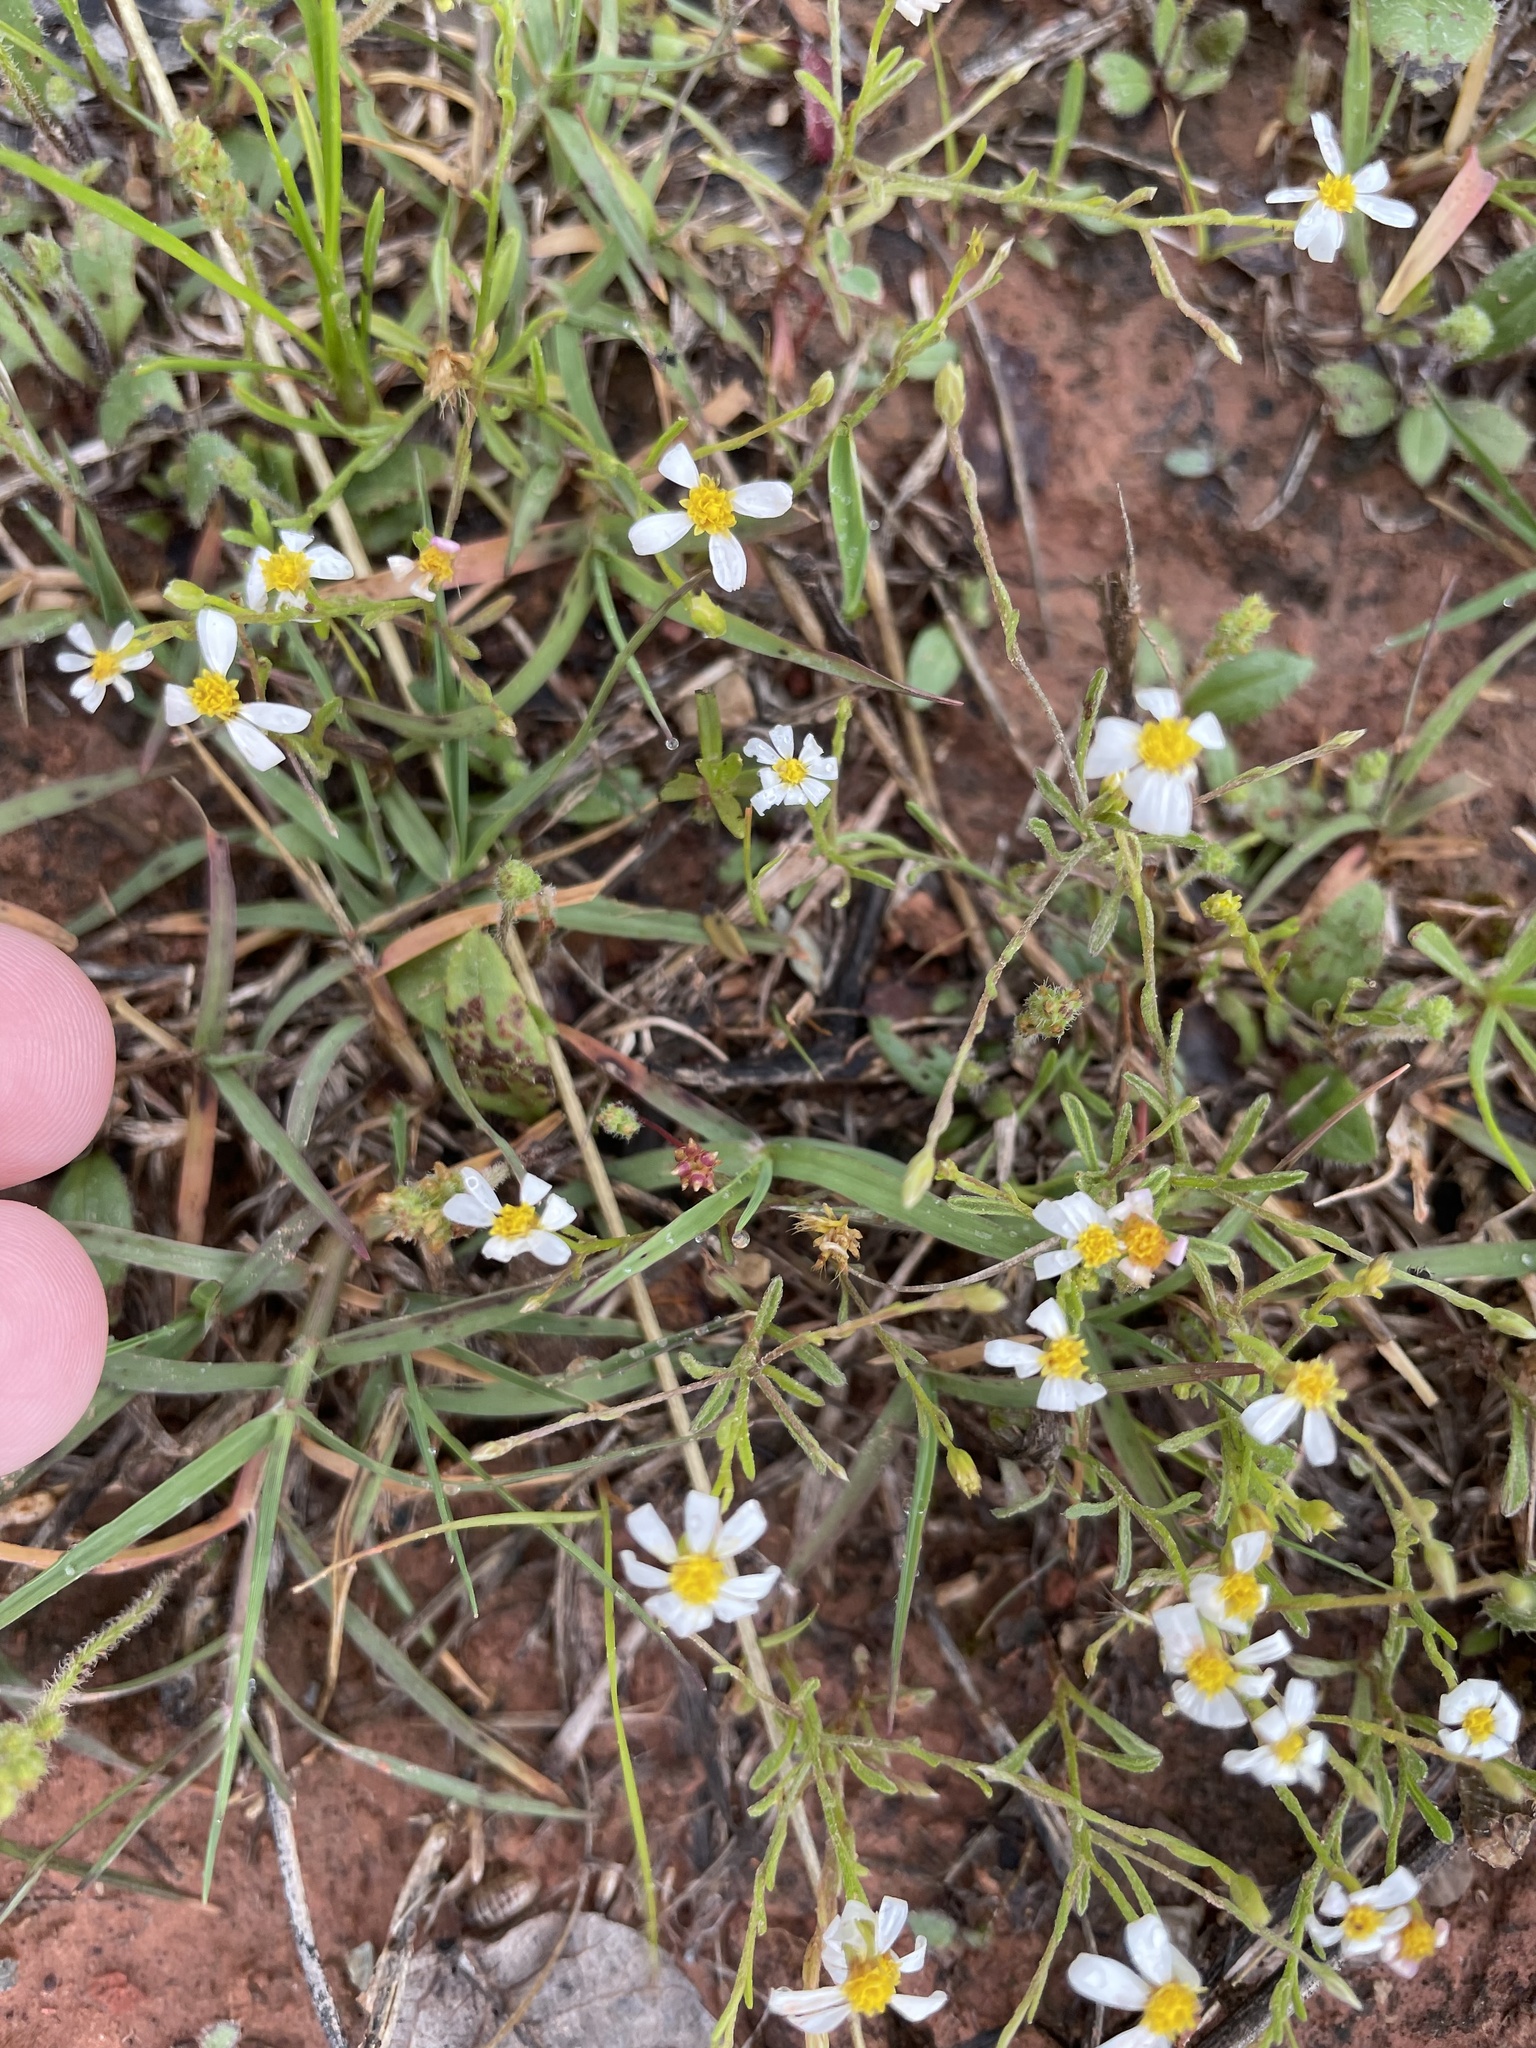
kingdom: Plantae
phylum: Tracheophyta
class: Magnoliopsida
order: Asterales
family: Asteraceae
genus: Chaetopappa
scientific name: Chaetopappa asteroides
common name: Tiny lazy daisy
